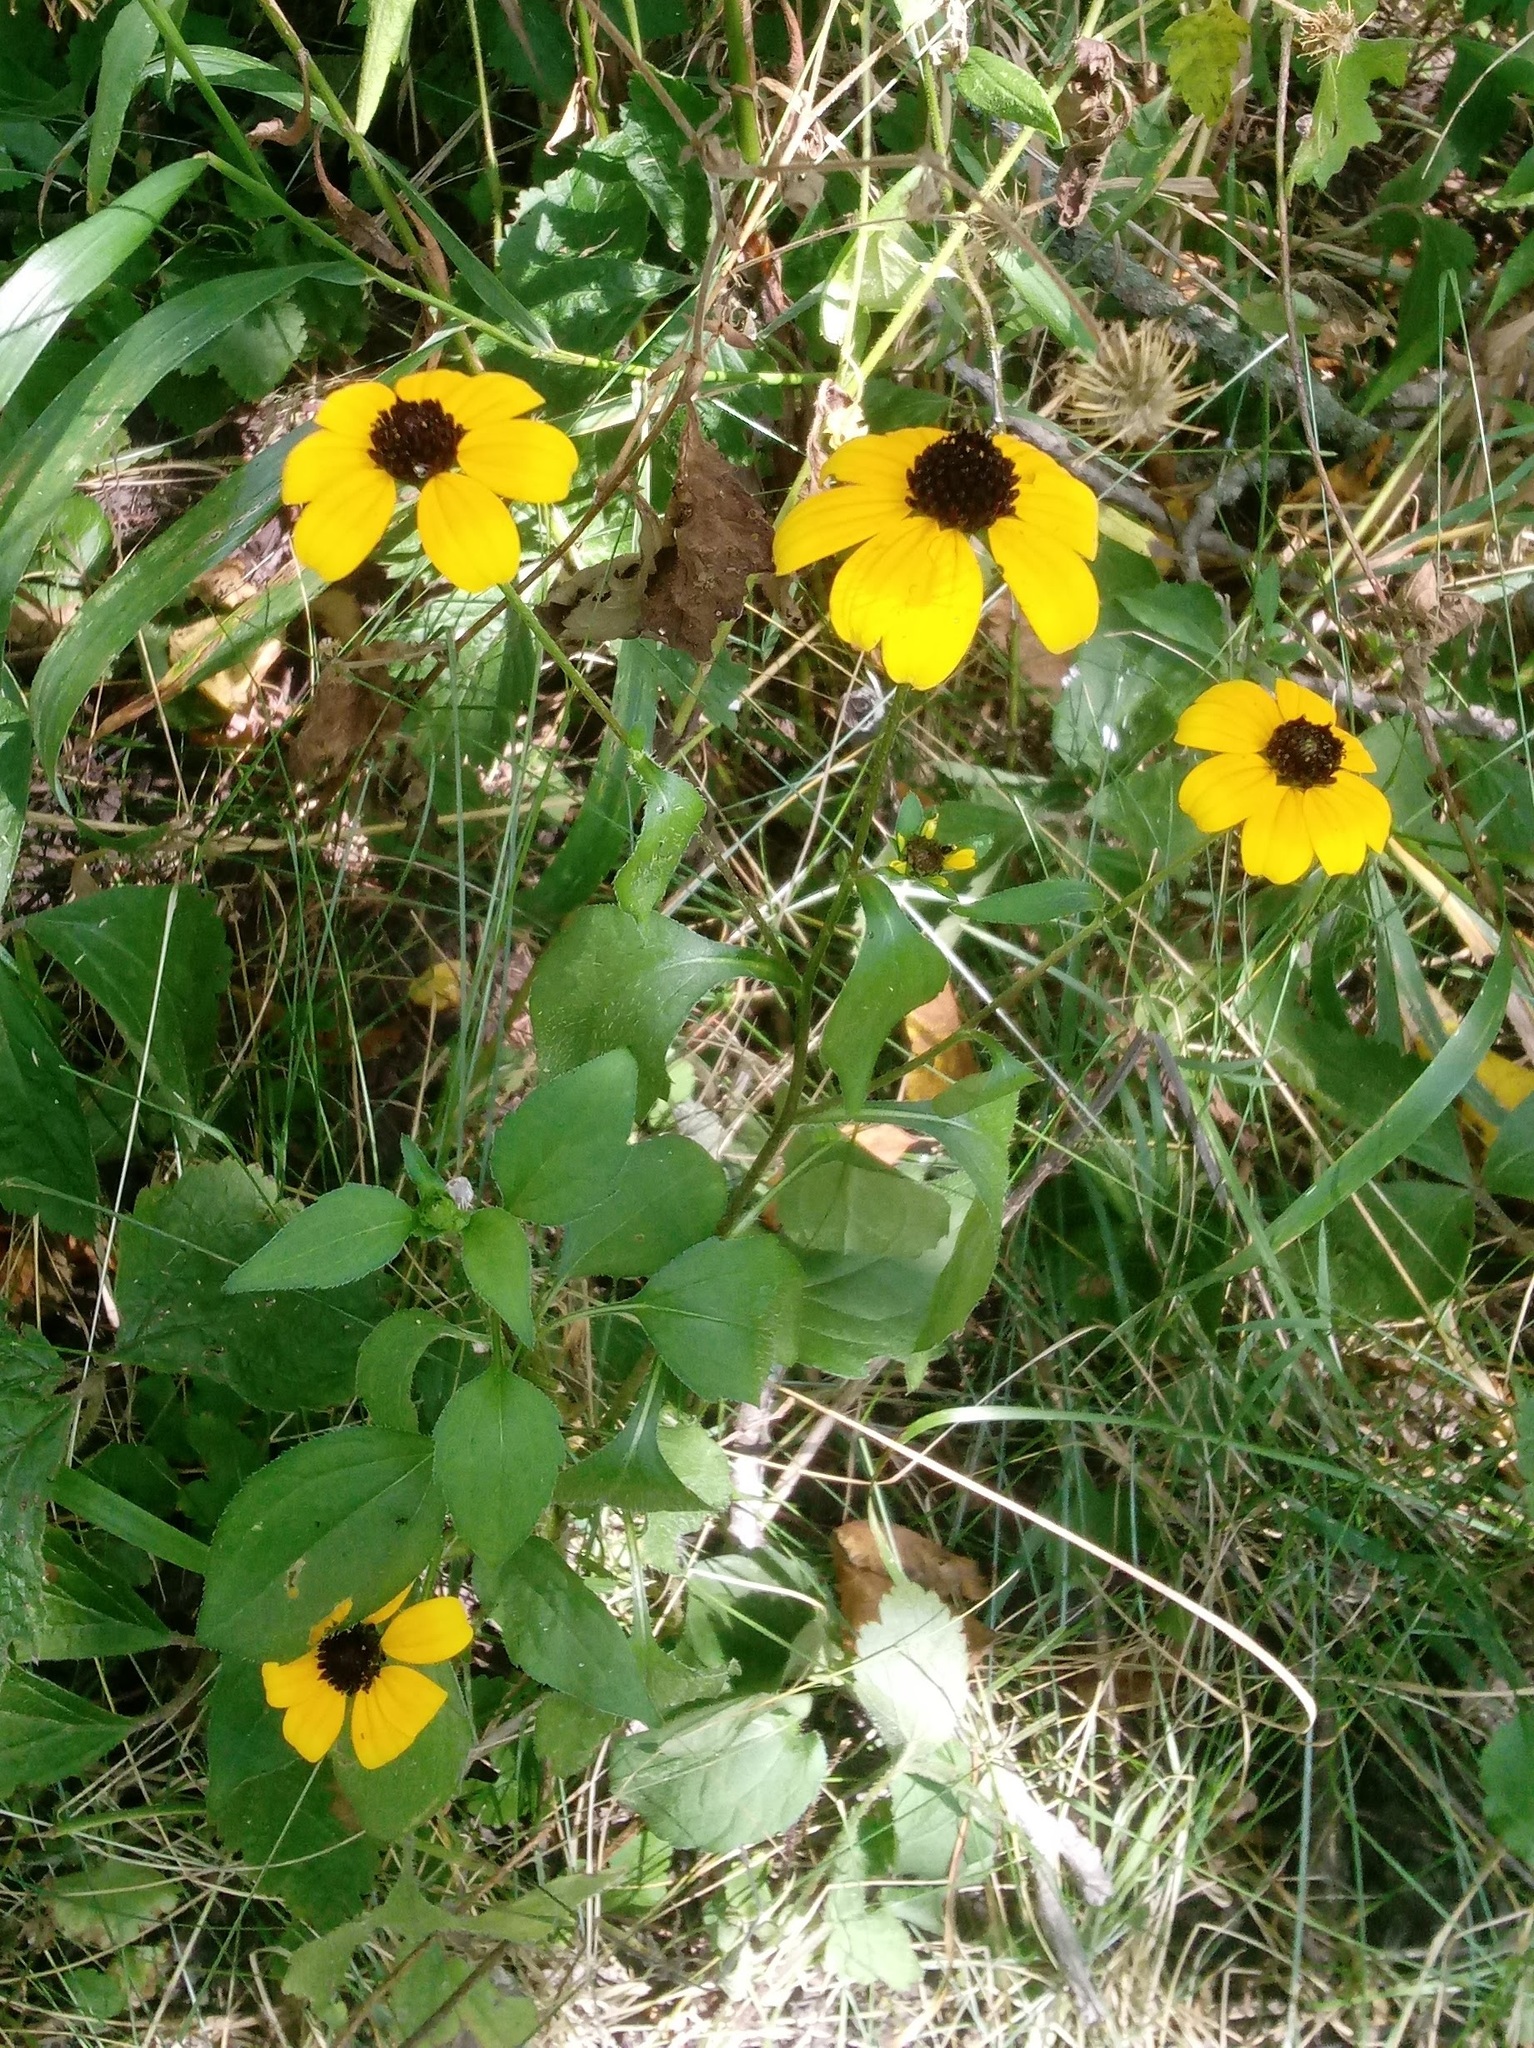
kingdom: Plantae
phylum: Tracheophyta
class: Magnoliopsida
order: Asterales
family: Asteraceae
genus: Rudbeckia
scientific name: Rudbeckia triloba
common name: Thin-leaved coneflower
